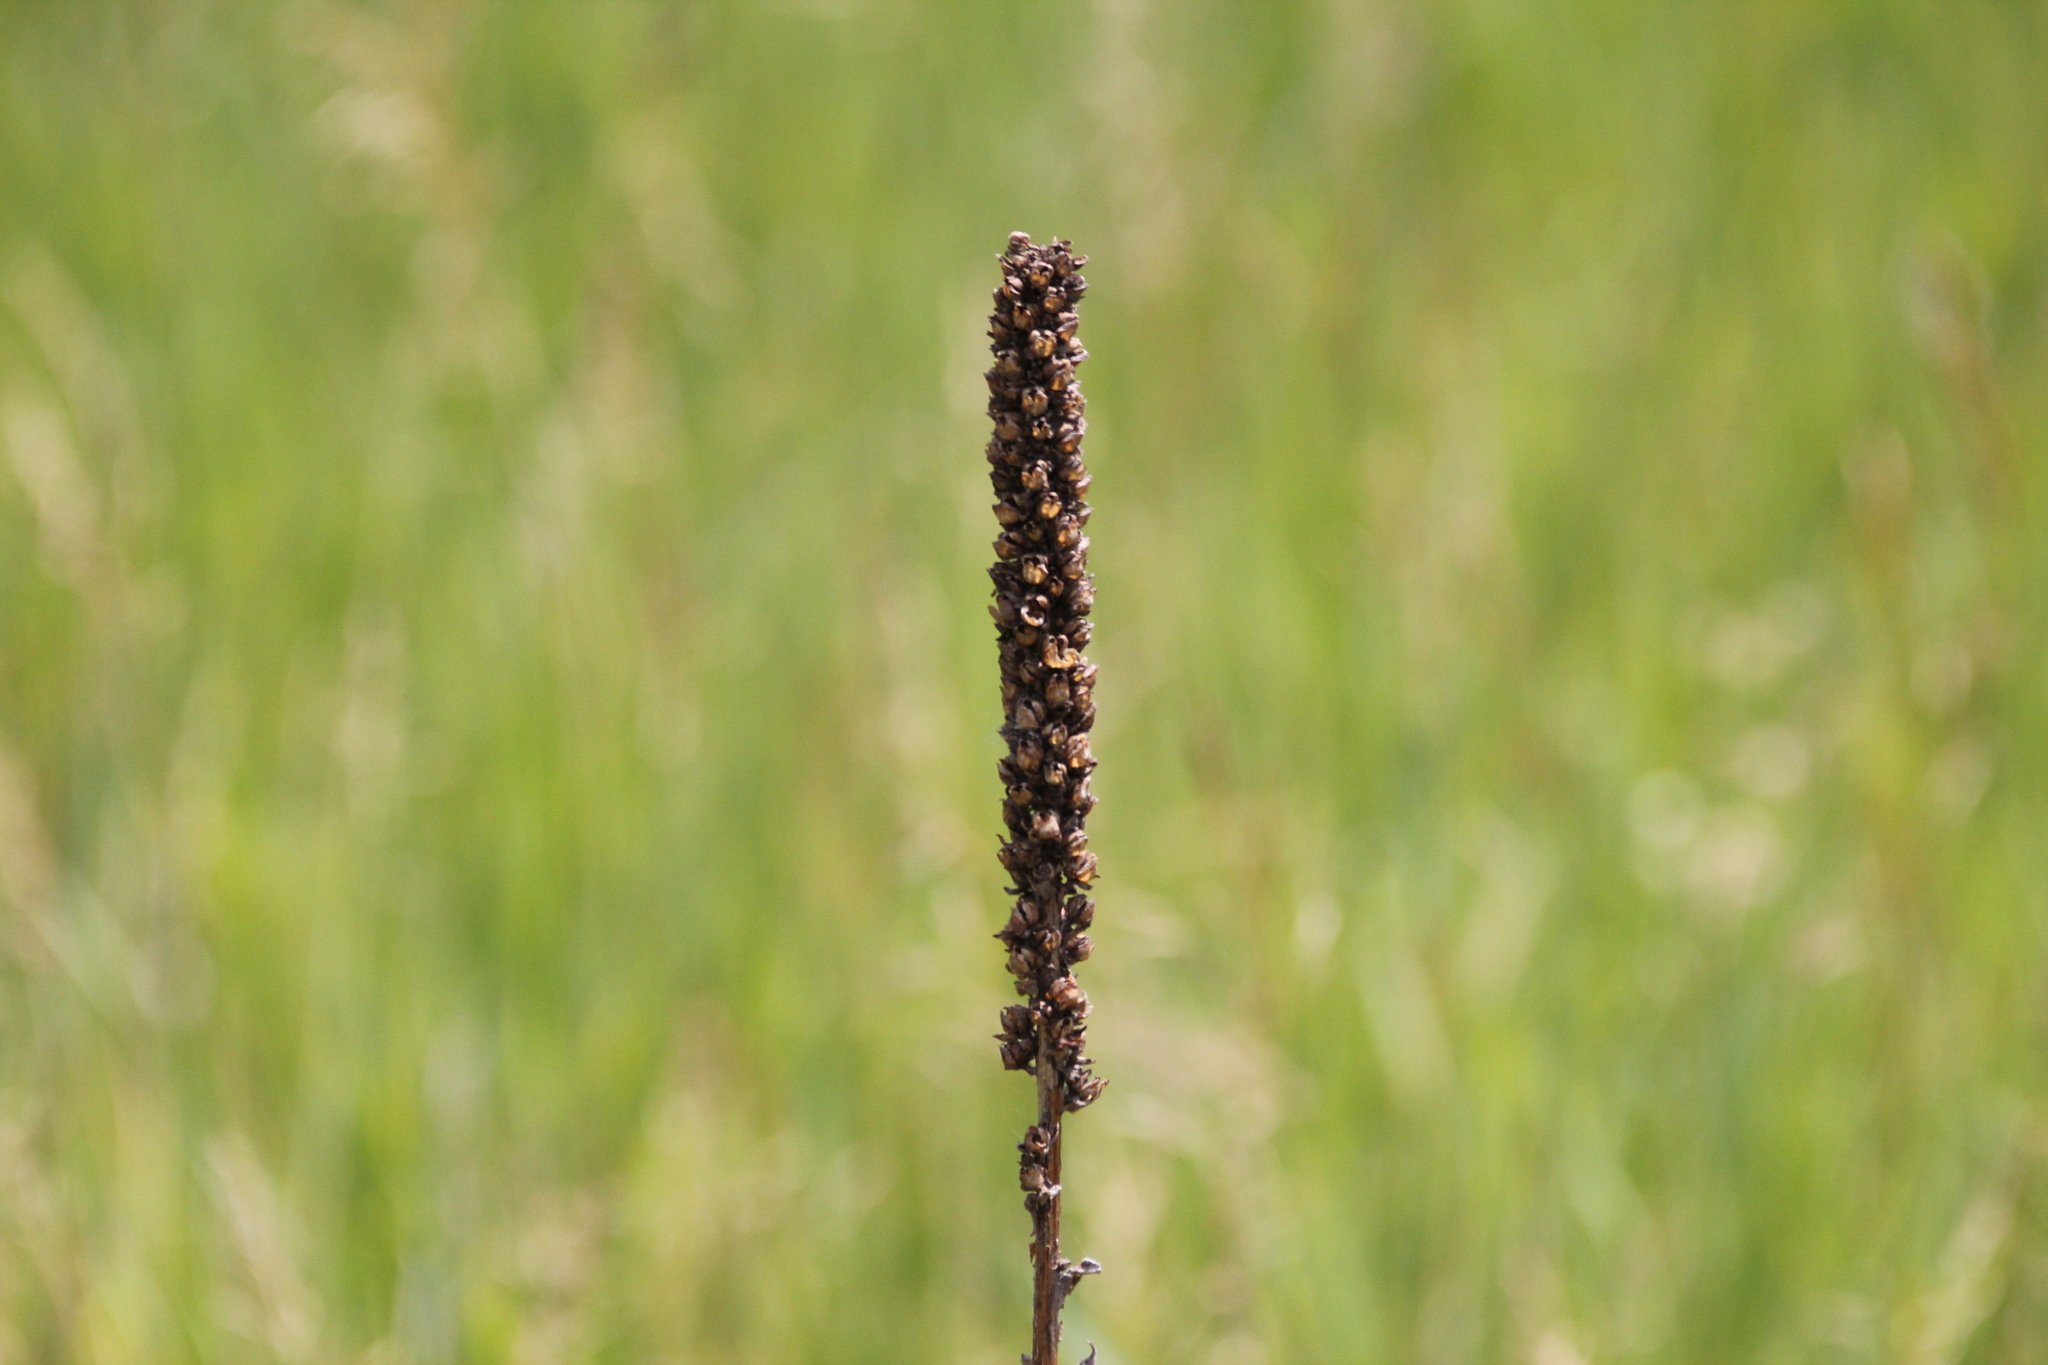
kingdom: Plantae
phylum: Tracheophyta
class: Magnoliopsida
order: Lamiales
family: Scrophulariaceae
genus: Verbascum
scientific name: Verbascum thapsus
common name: Common mullein
